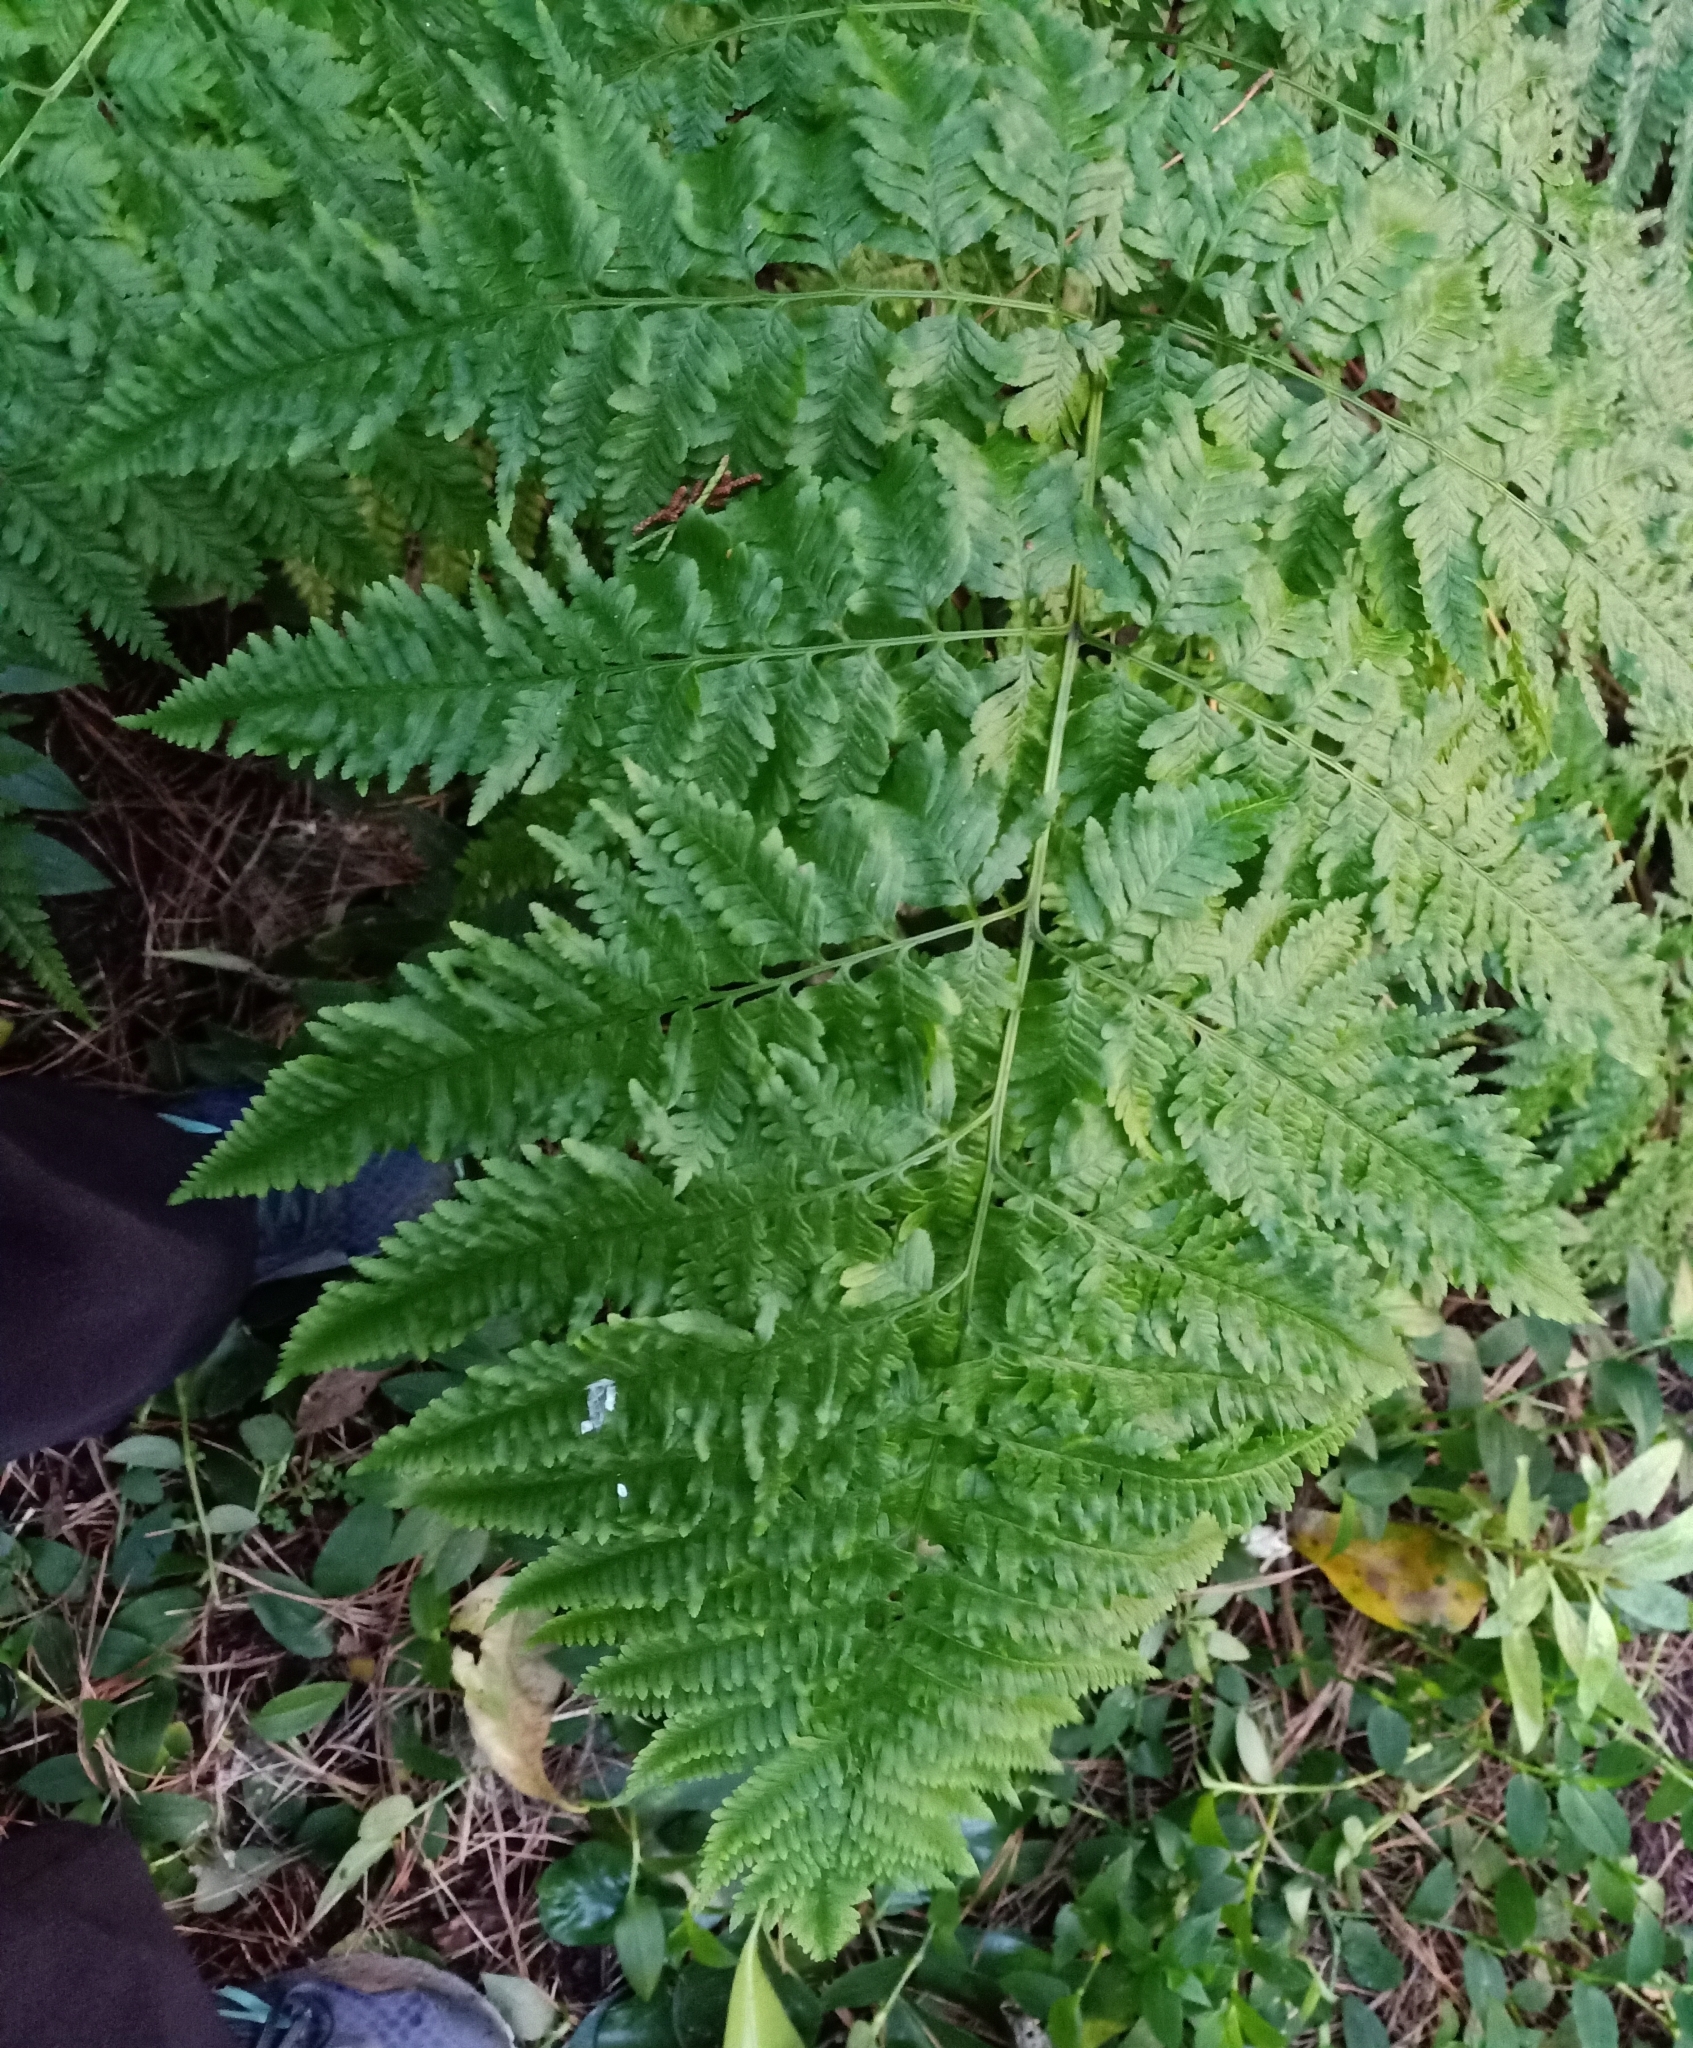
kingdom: Plantae
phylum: Tracheophyta
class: Polypodiopsida
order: Polypodiales
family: Pteridaceae
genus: Pteris
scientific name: Pteris tremula
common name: Australian brake
